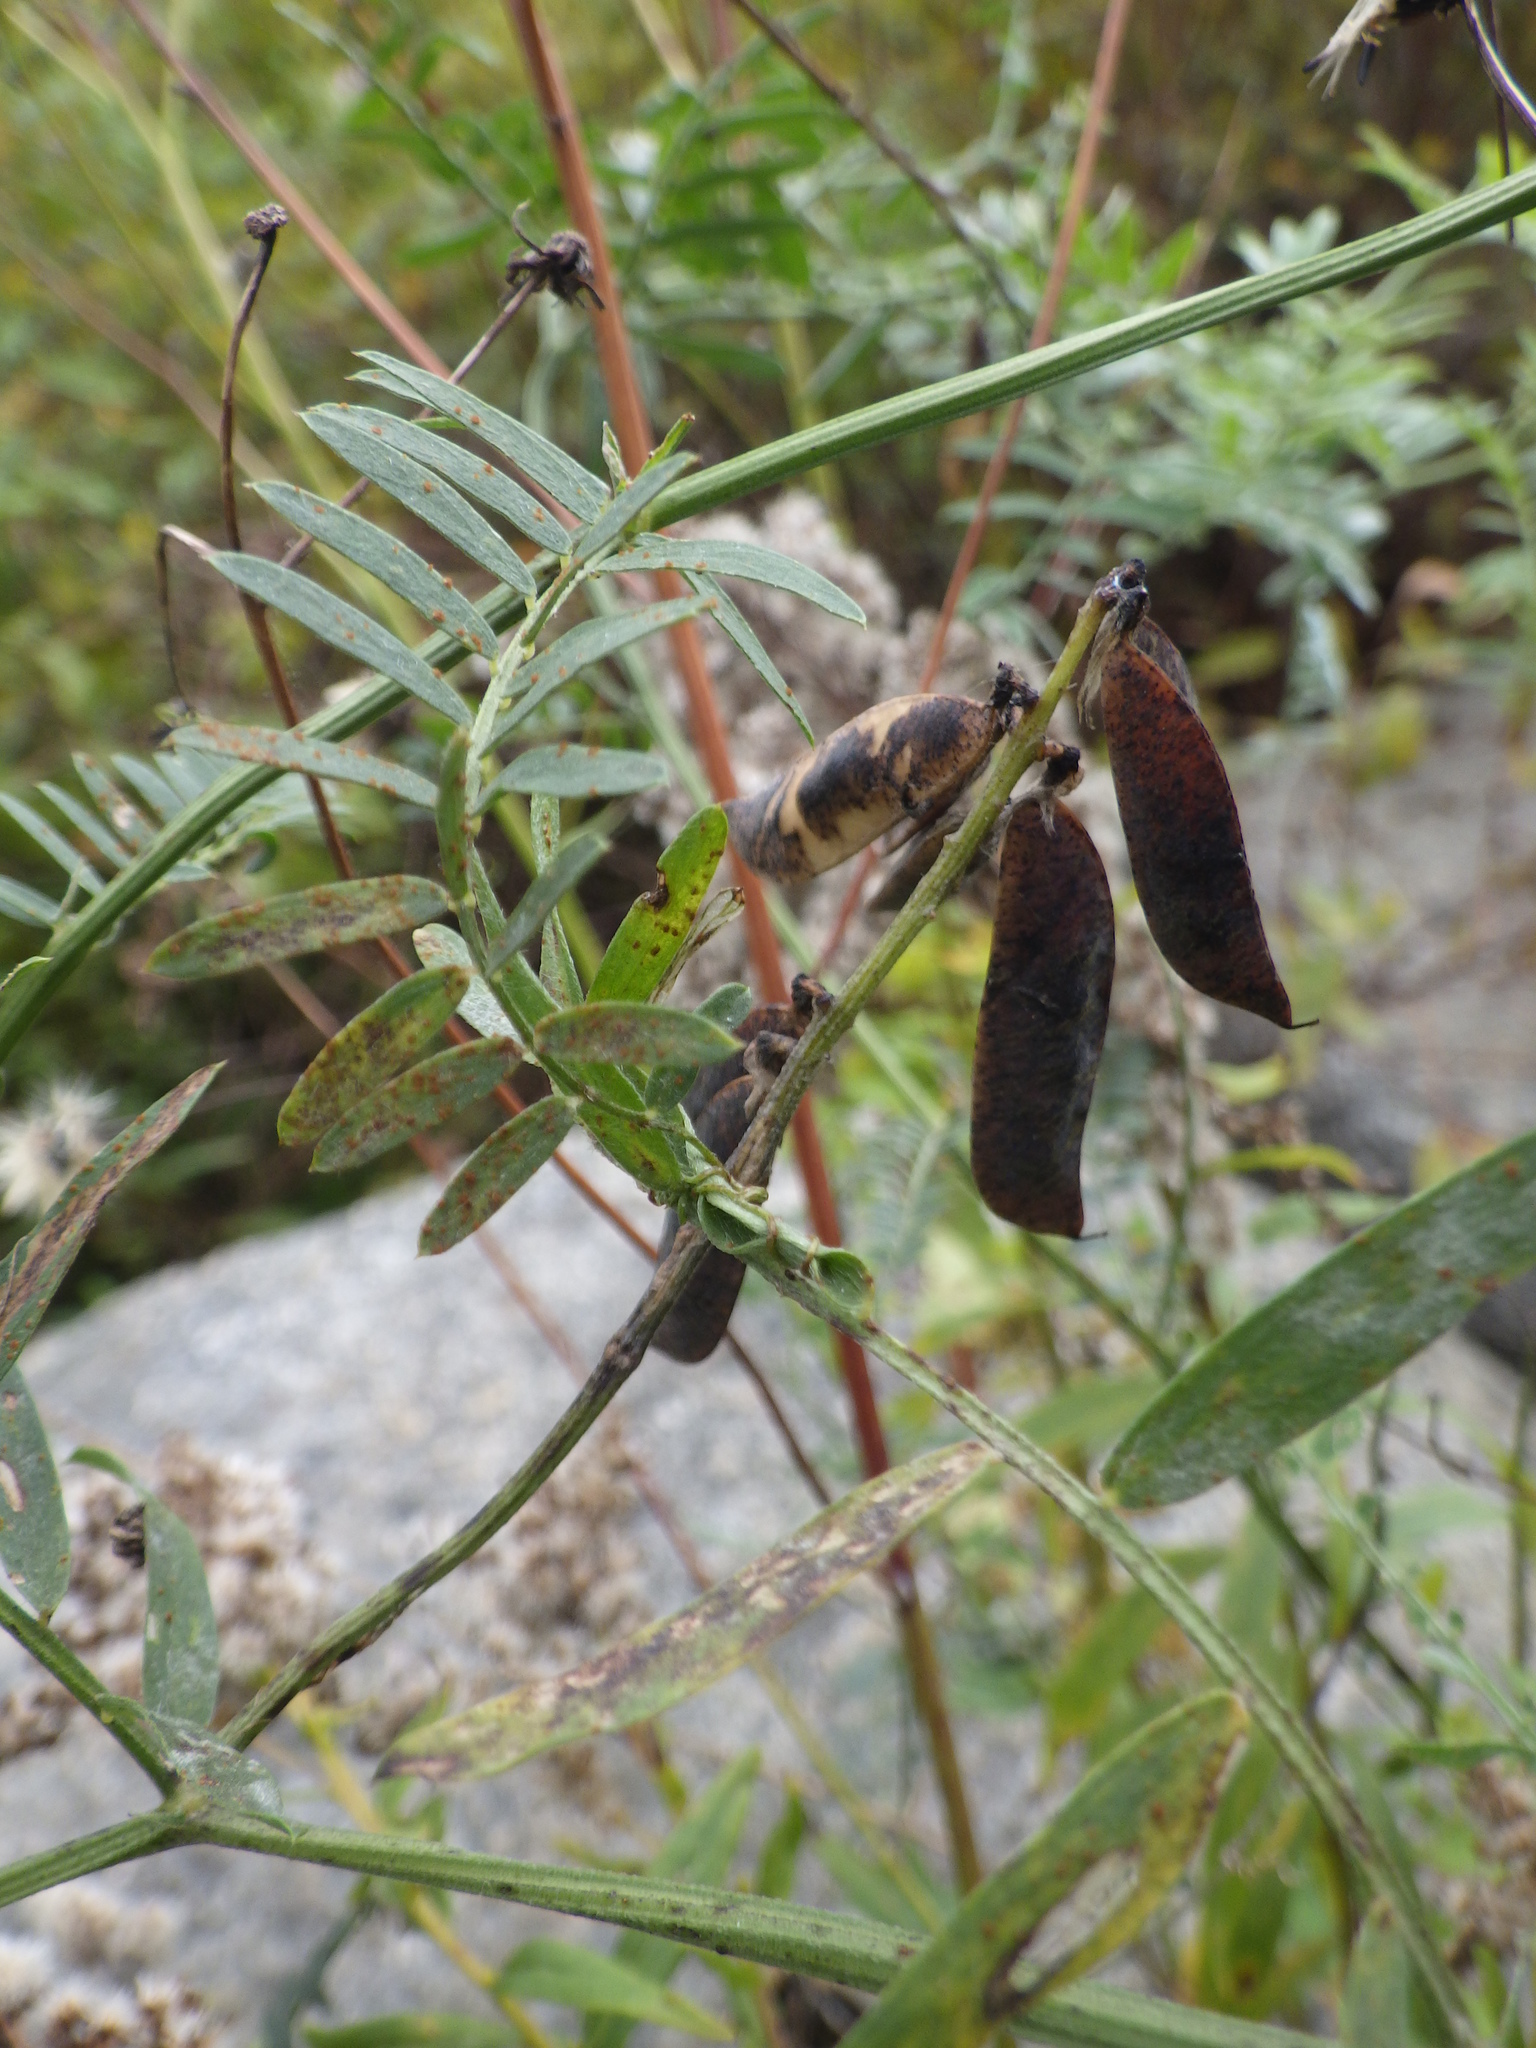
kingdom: Plantae
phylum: Tracheophyta
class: Magnoliopsida
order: Fabales
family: Fabaceae
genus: Vicia
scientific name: Vicia cracca
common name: Bird vetch
